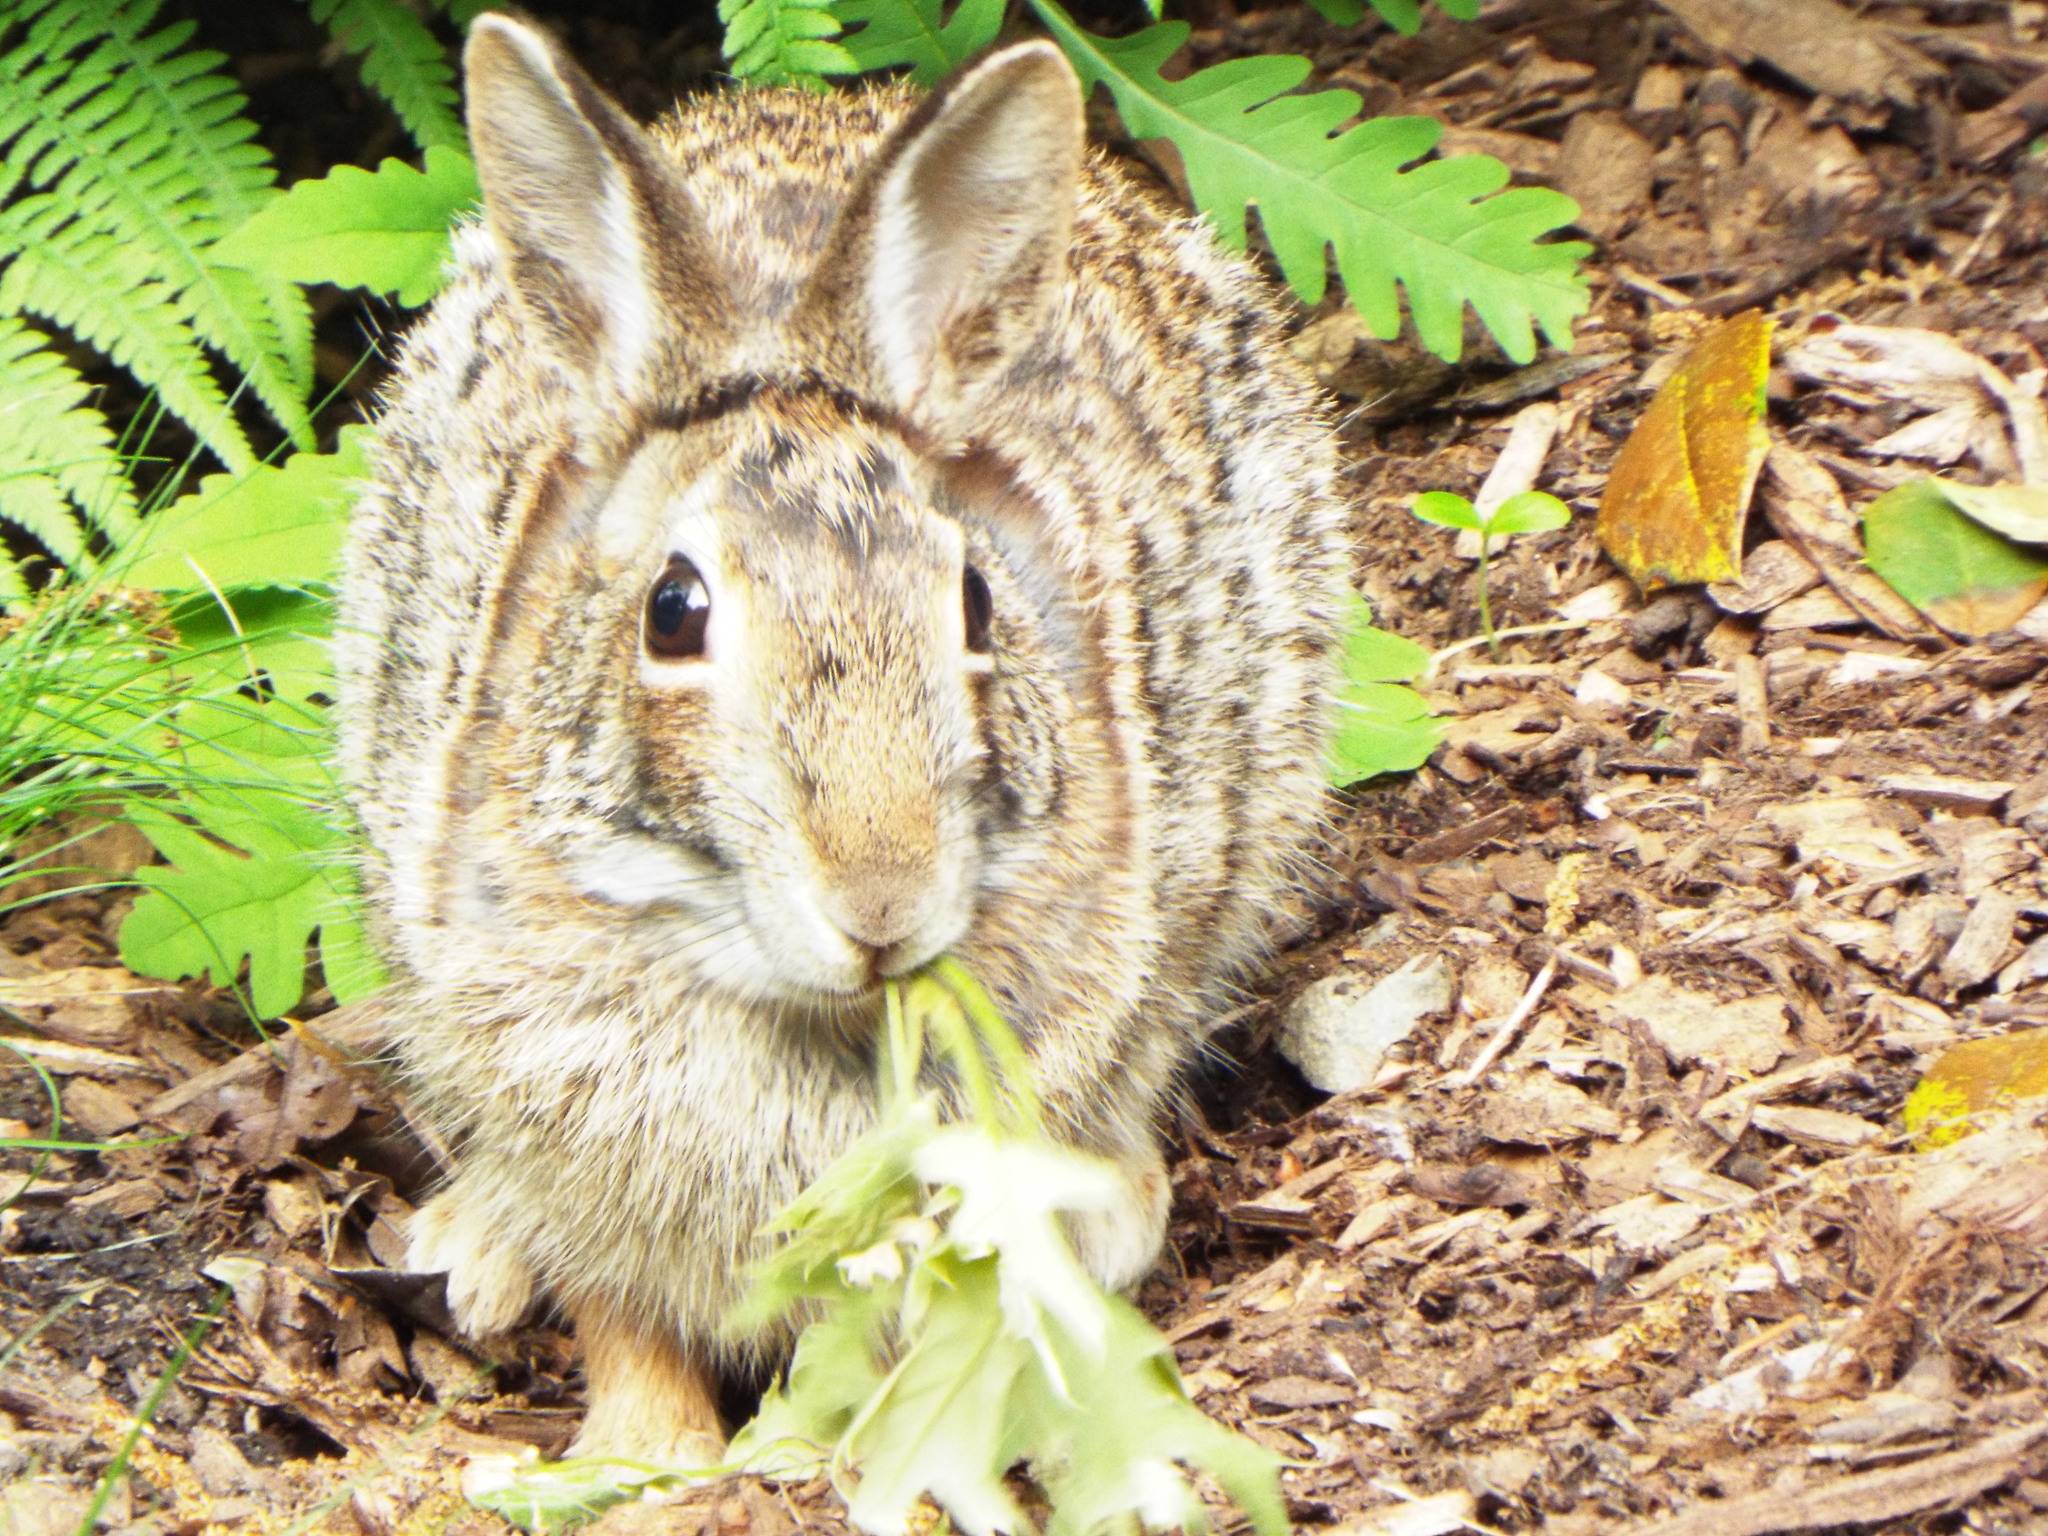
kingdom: Animalia
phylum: Chordata
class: Mammalia
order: Lagomorpha
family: Leporidae
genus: Sylvilagus
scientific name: Sylvilagus floridanus
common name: Eastern cottontail
